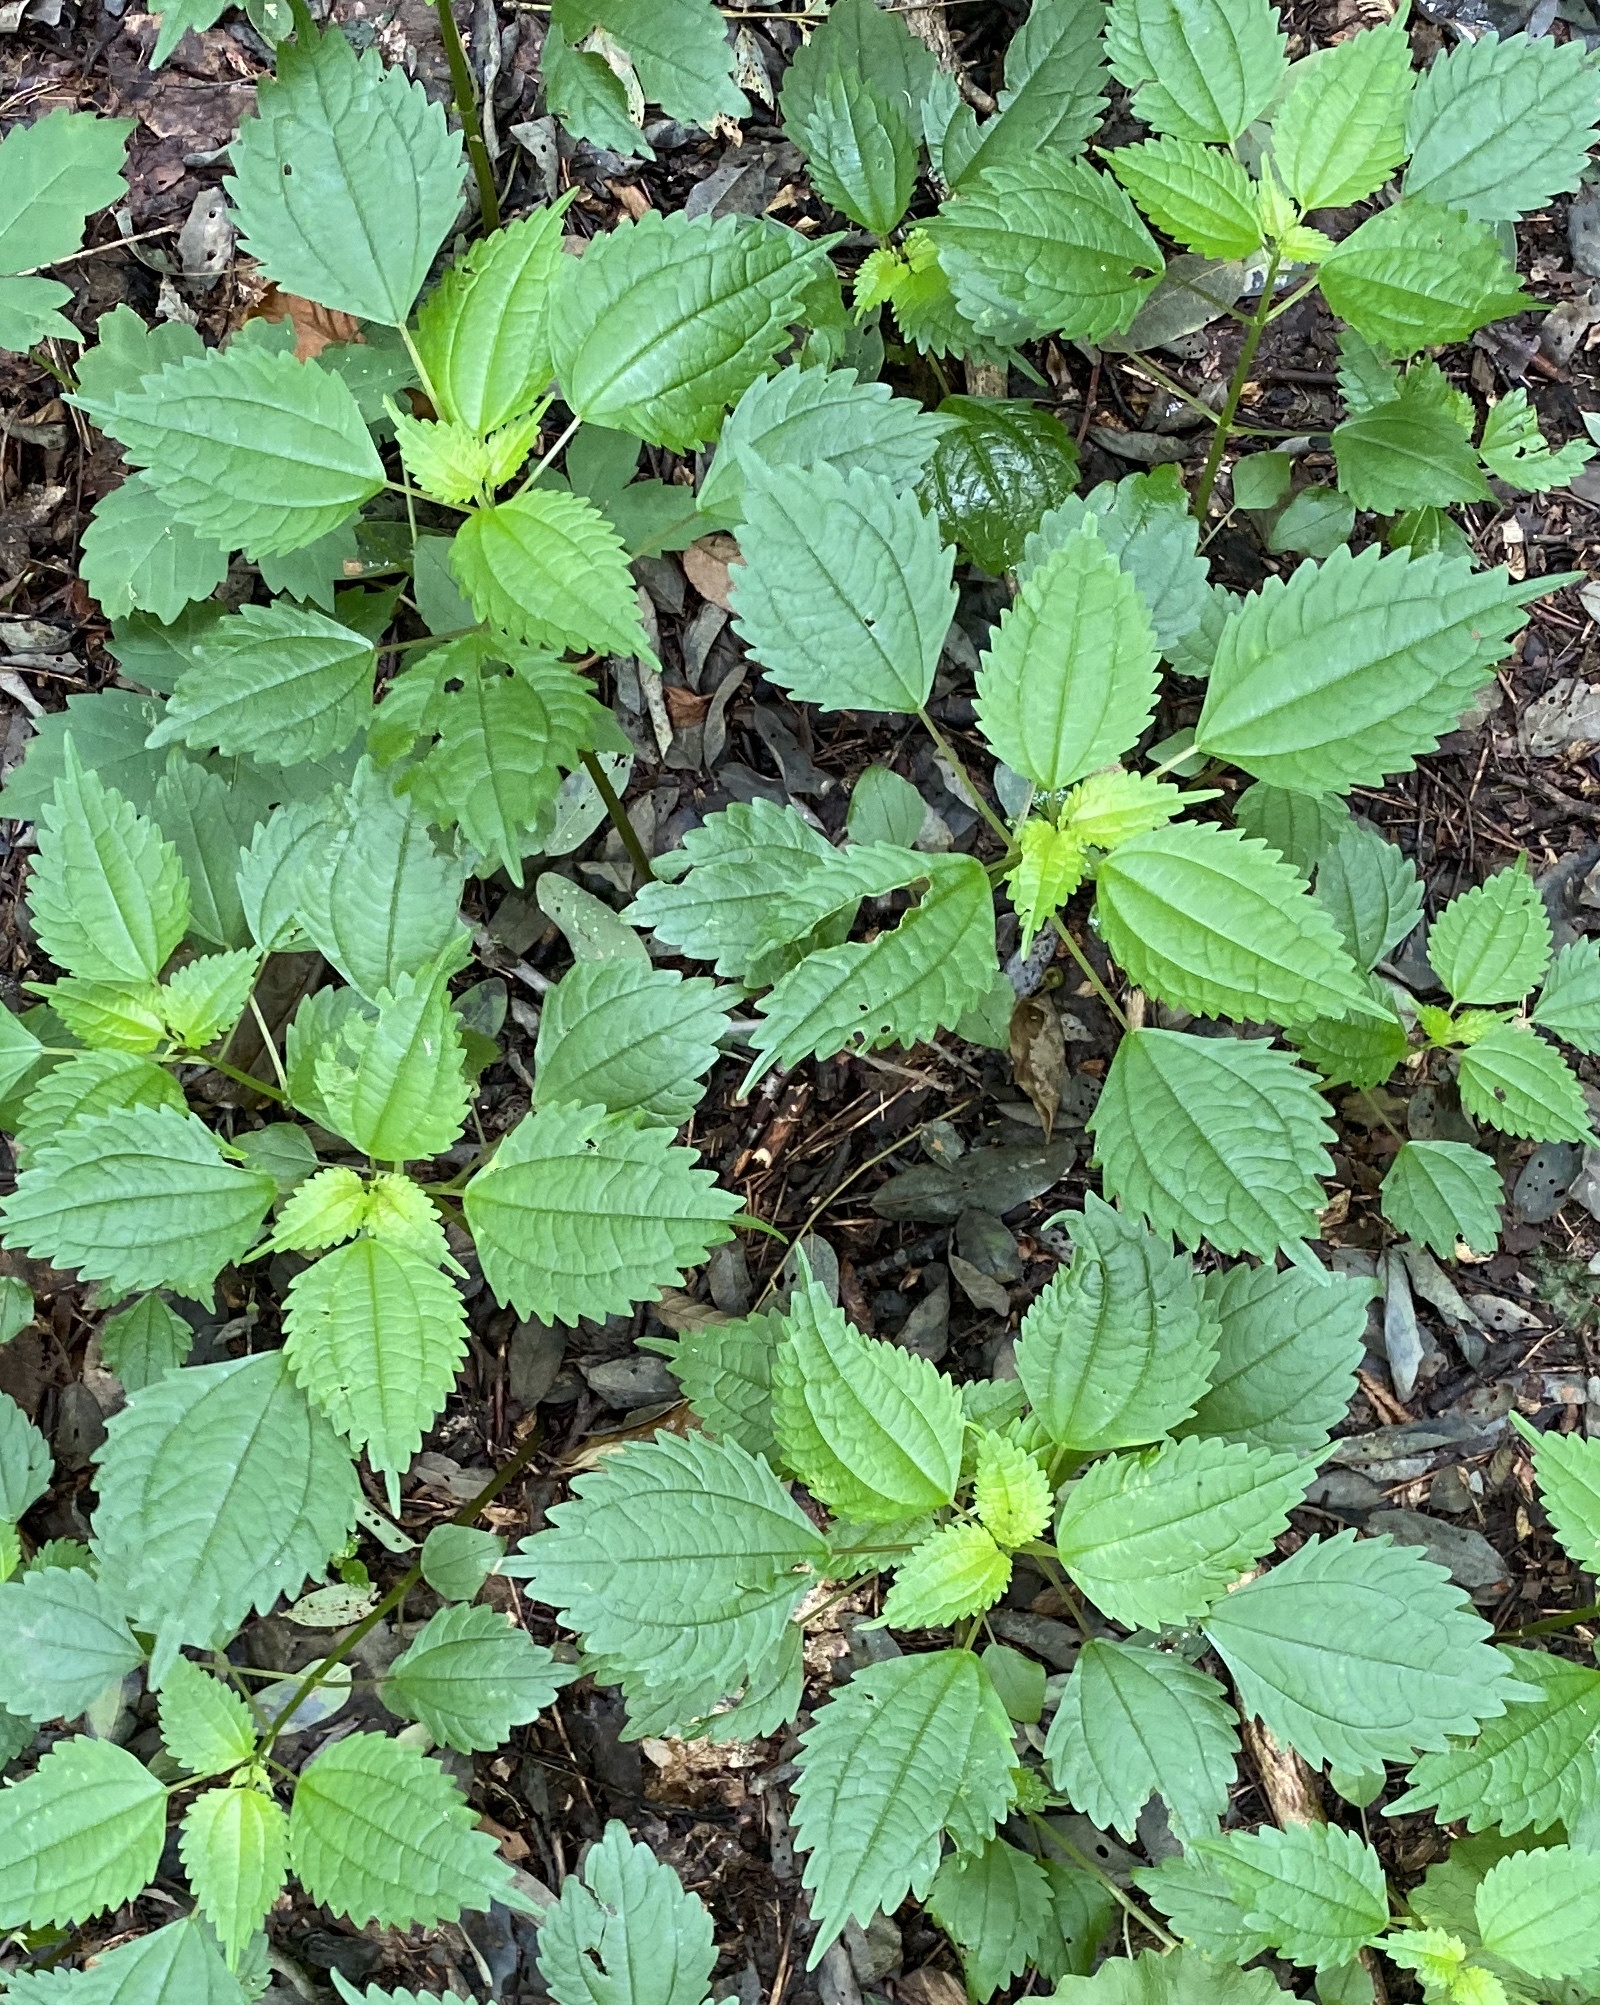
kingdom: Plantae
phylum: Tracheophyta
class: Magnoliopsida
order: Rosales
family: Urticaceae
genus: Pilea
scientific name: Pilea pumila
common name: Clearweed
